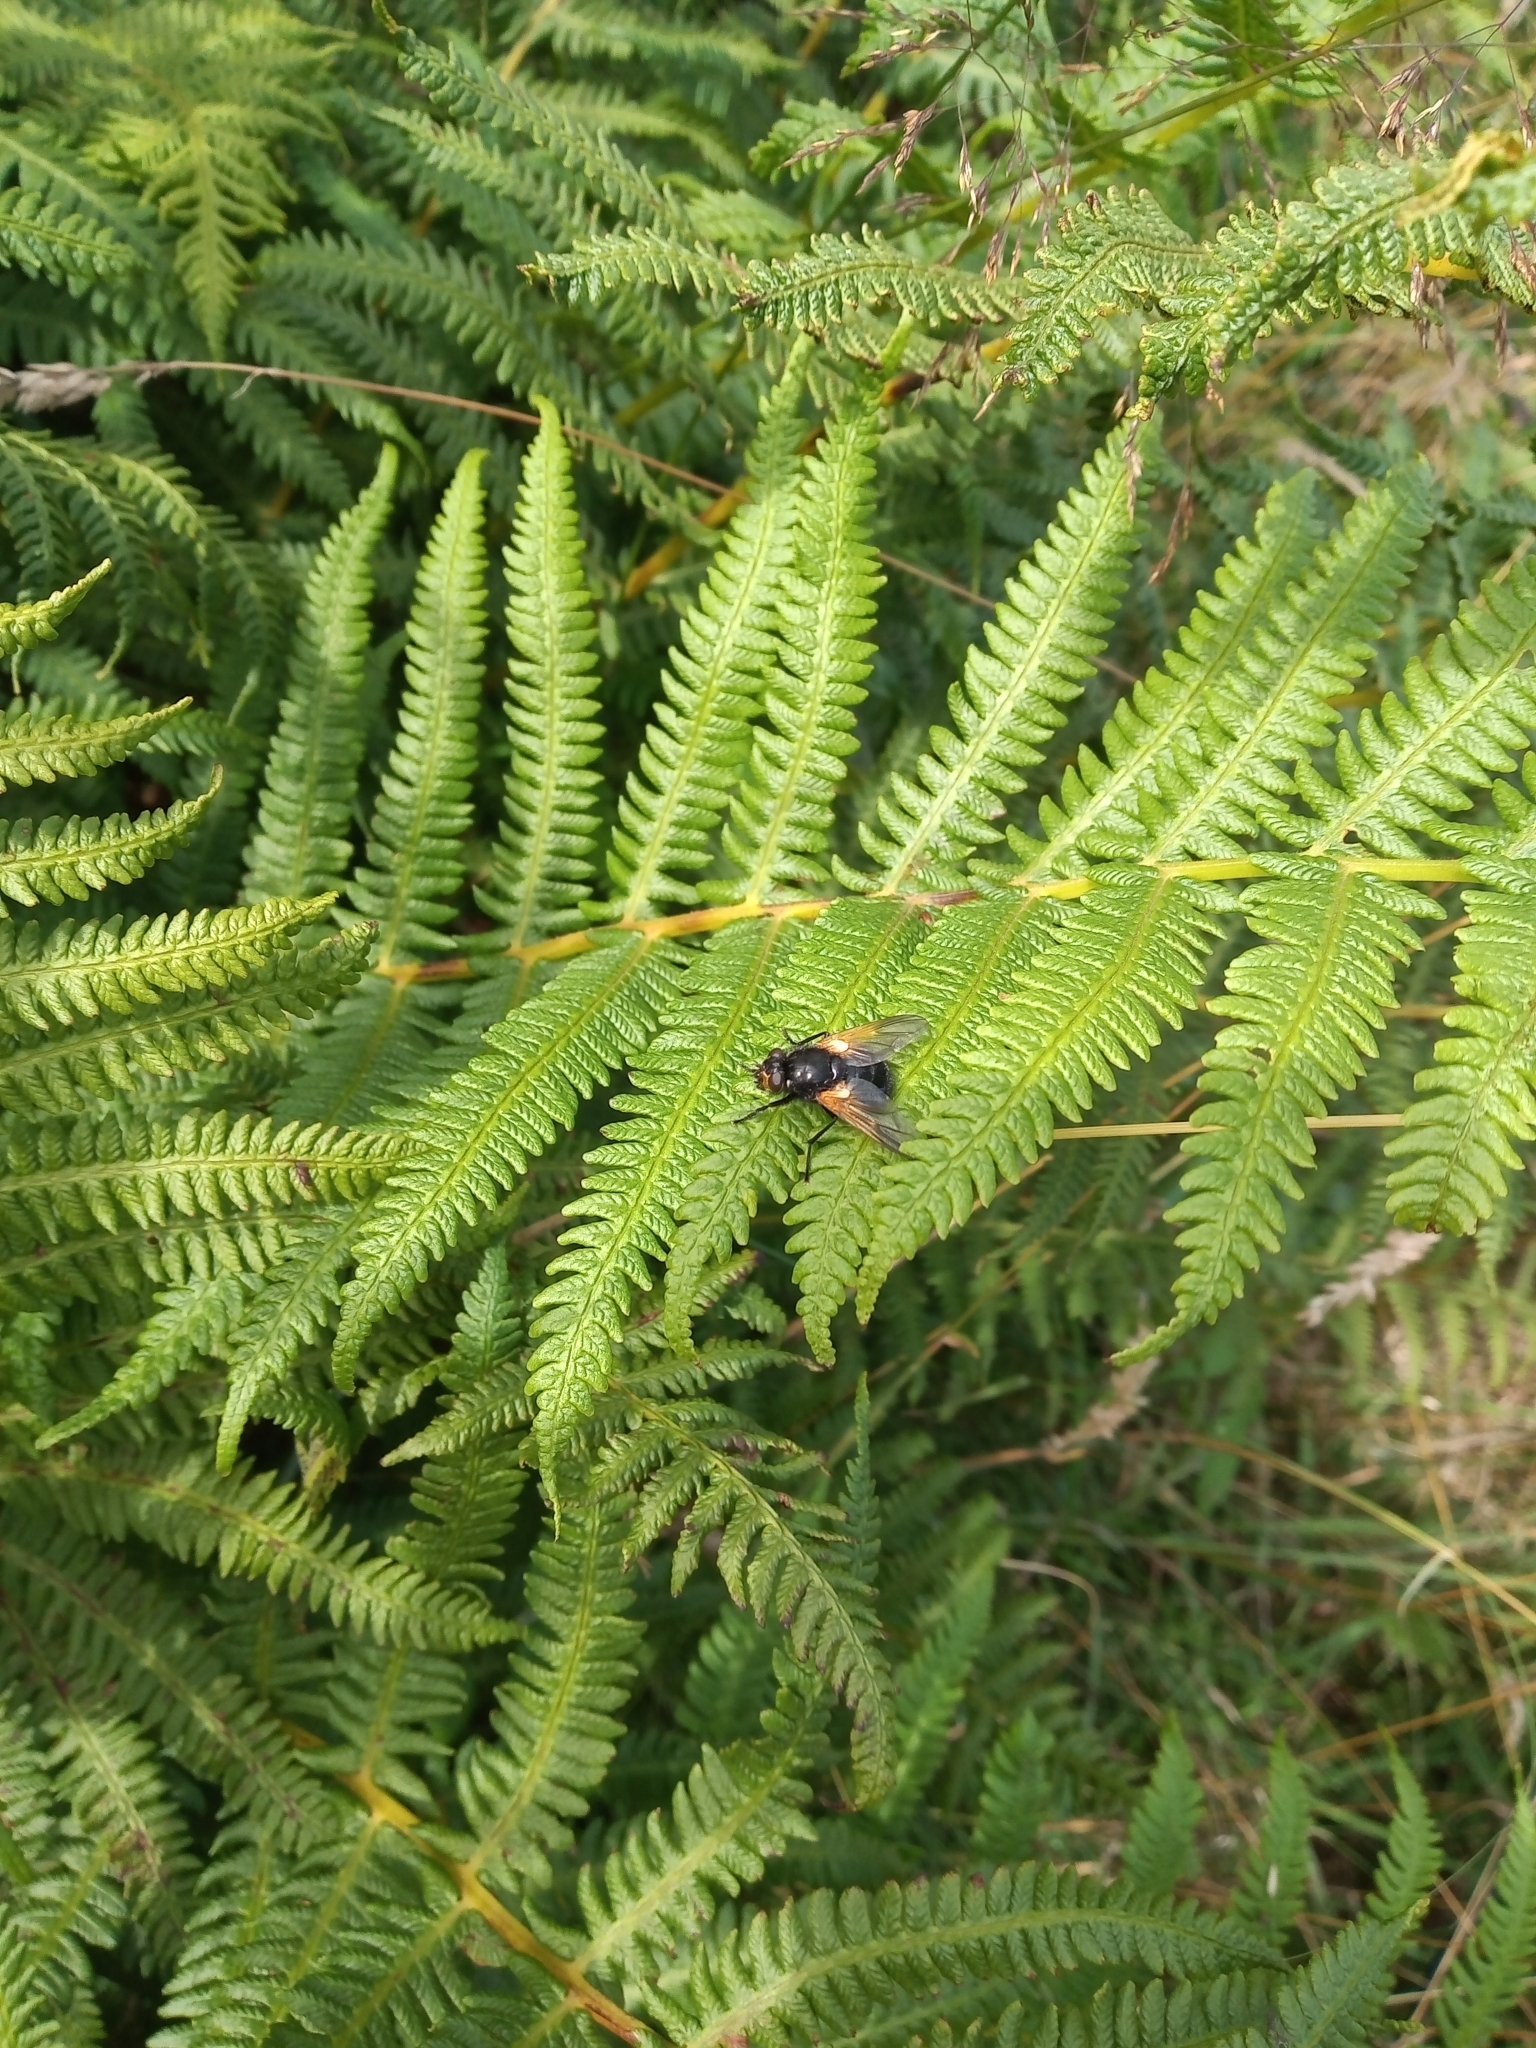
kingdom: Animalia
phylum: Arthropoda
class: Insecta
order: Diptera
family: Muscidae
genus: Mesembrina
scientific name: Mesembrina meridiana
